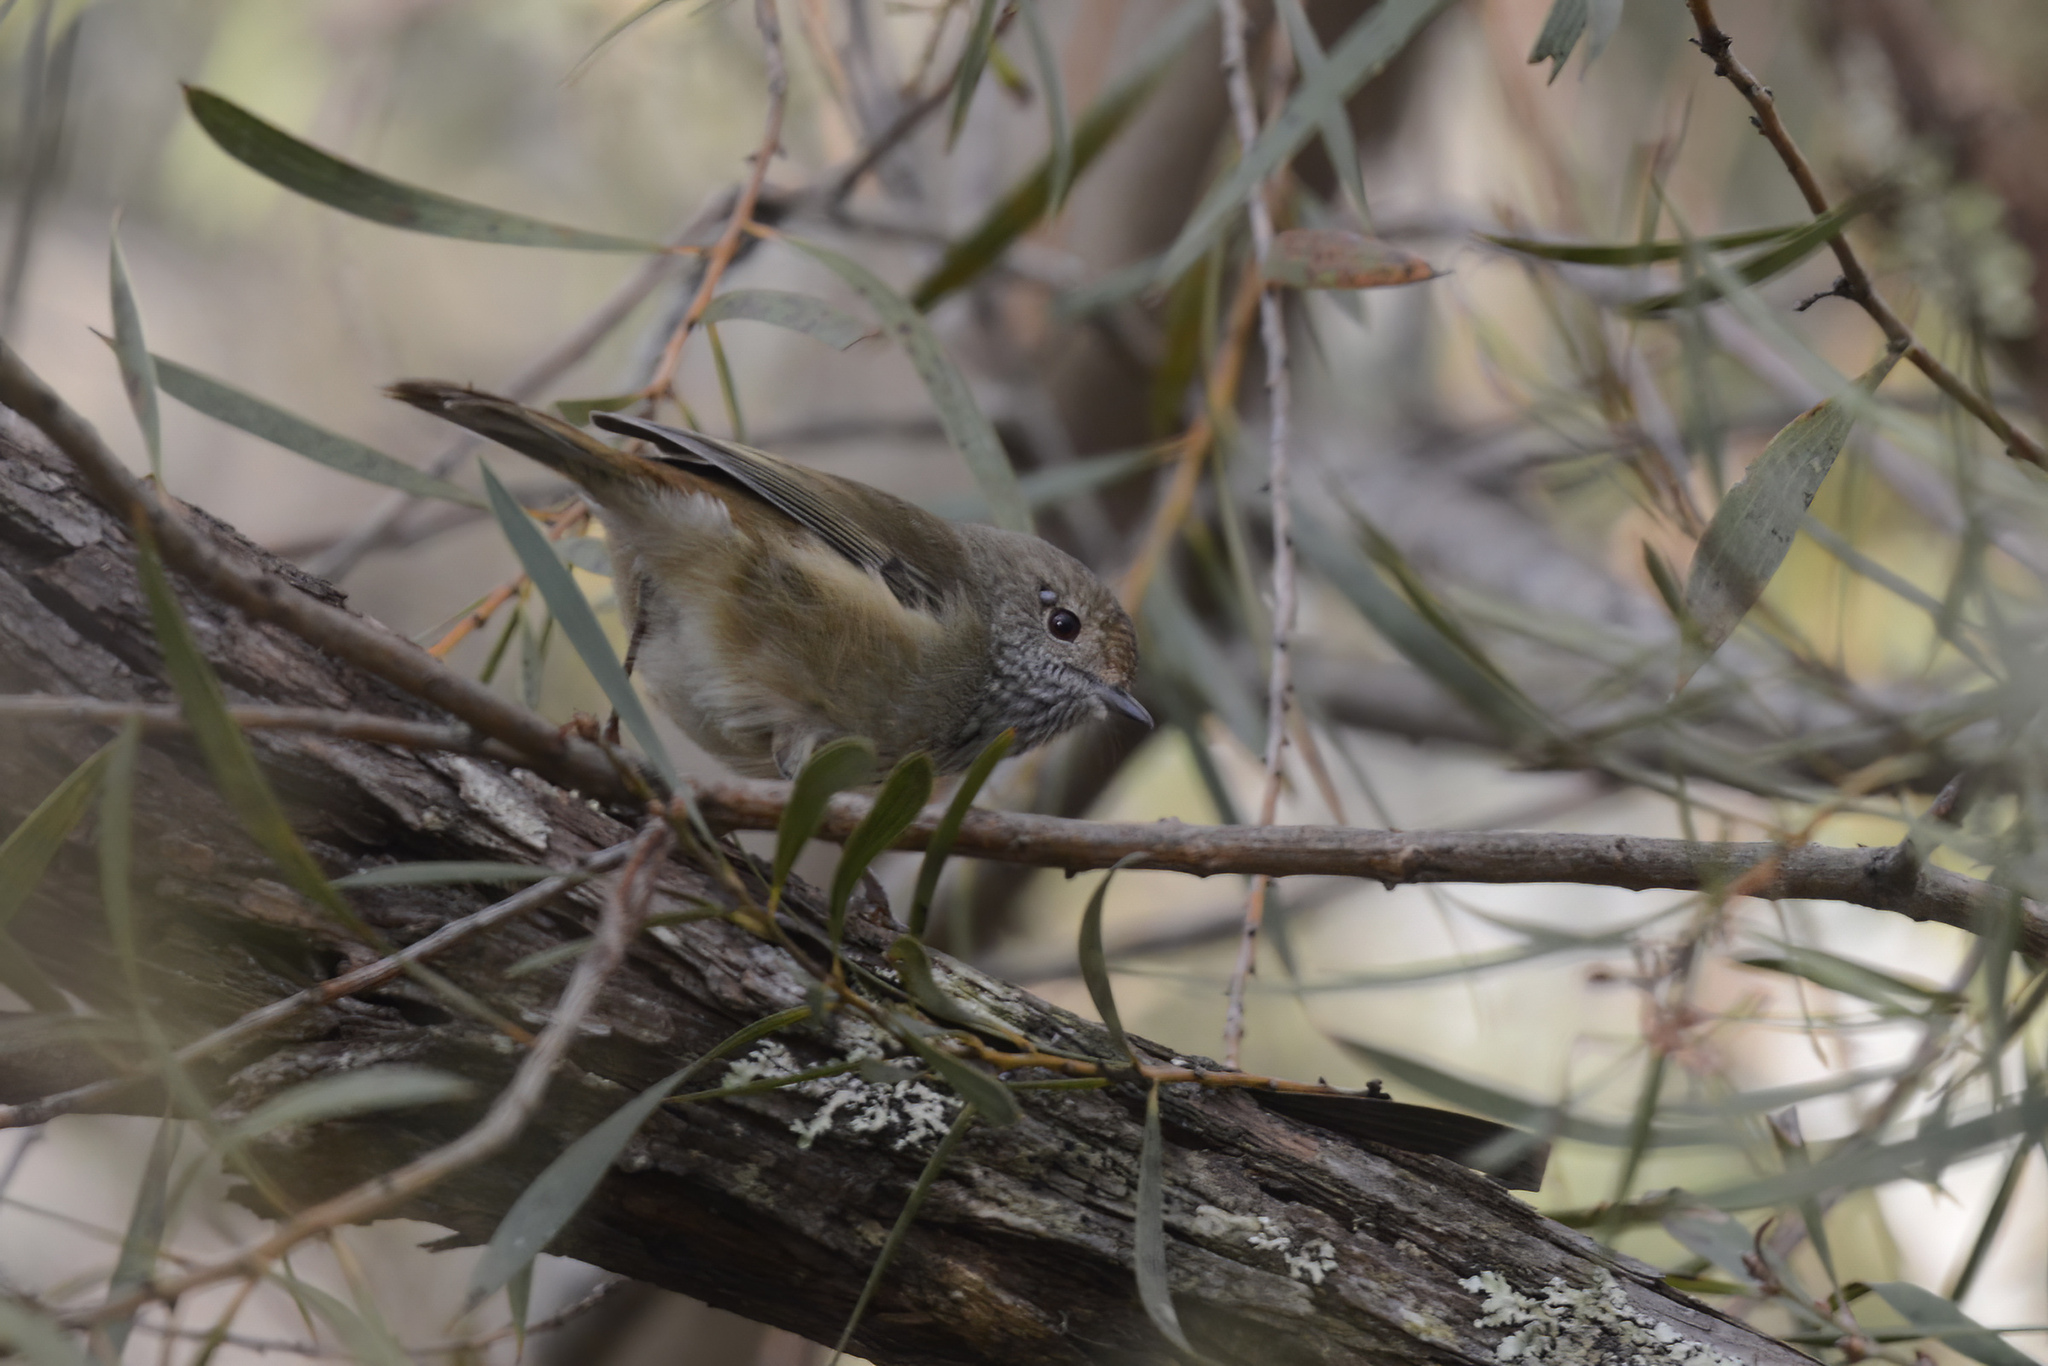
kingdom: Animalia
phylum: Chordata
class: Aves
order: Passeriformes
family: Acanthizidae
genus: Acanthiza
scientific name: Acanthiza pusilla
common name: Brown thornbill
